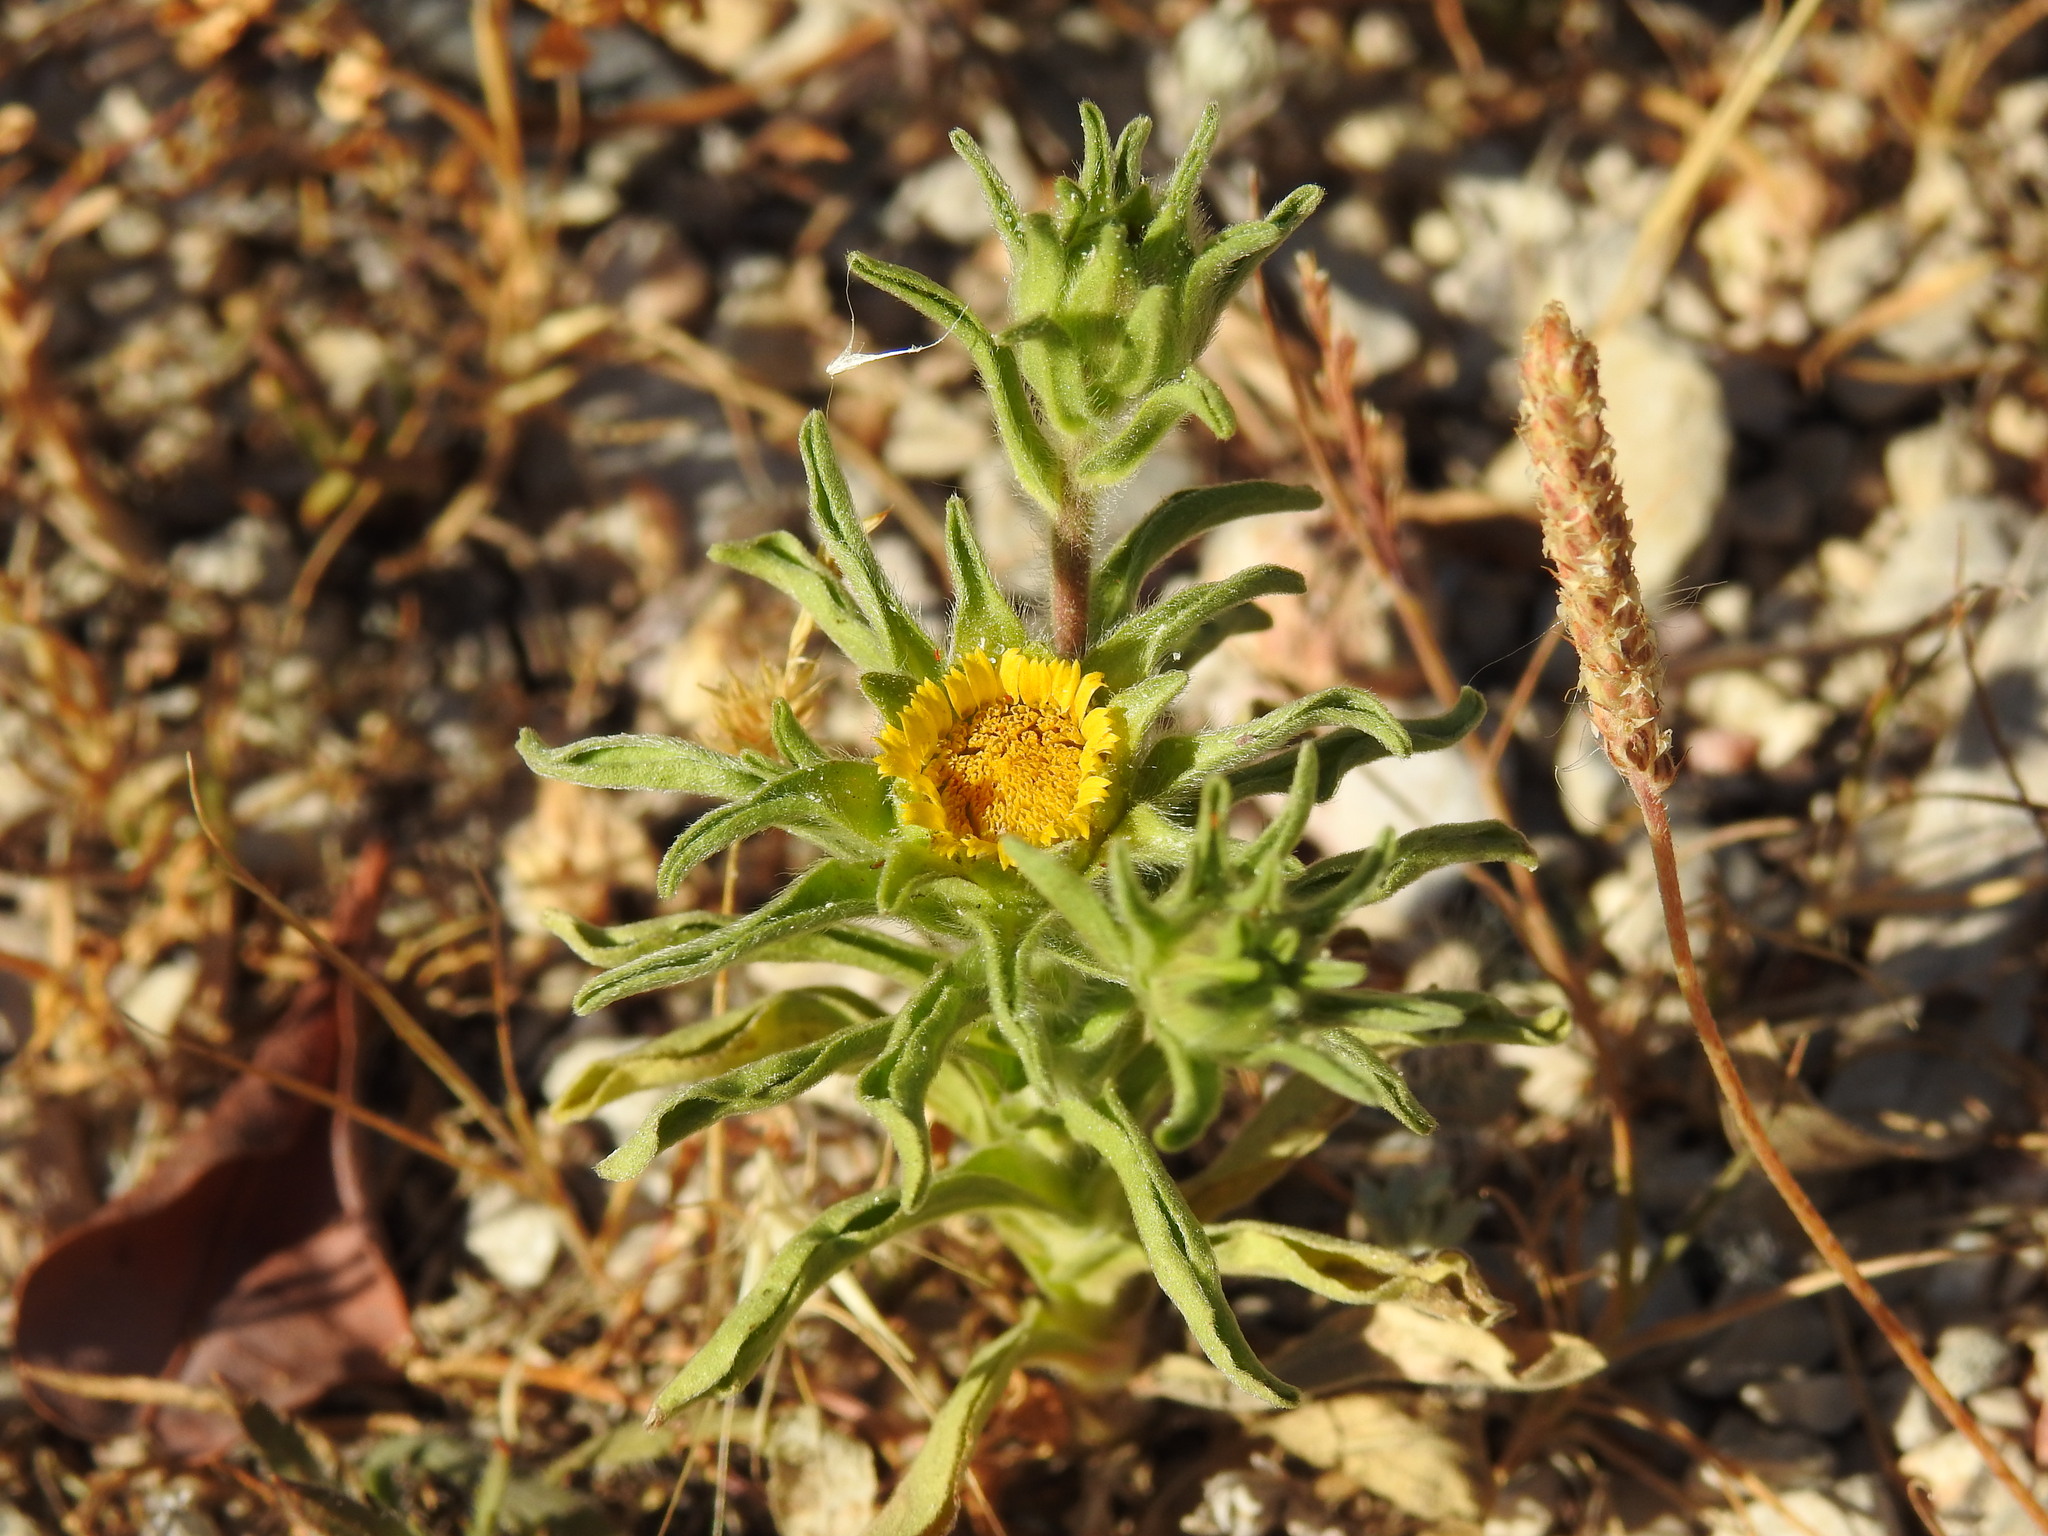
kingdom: Plantae
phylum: Tracheophyta
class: Magnoliopsida
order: Asterales
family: Asteraceae
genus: Asteriscus
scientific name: Asteriscus aquaticus
